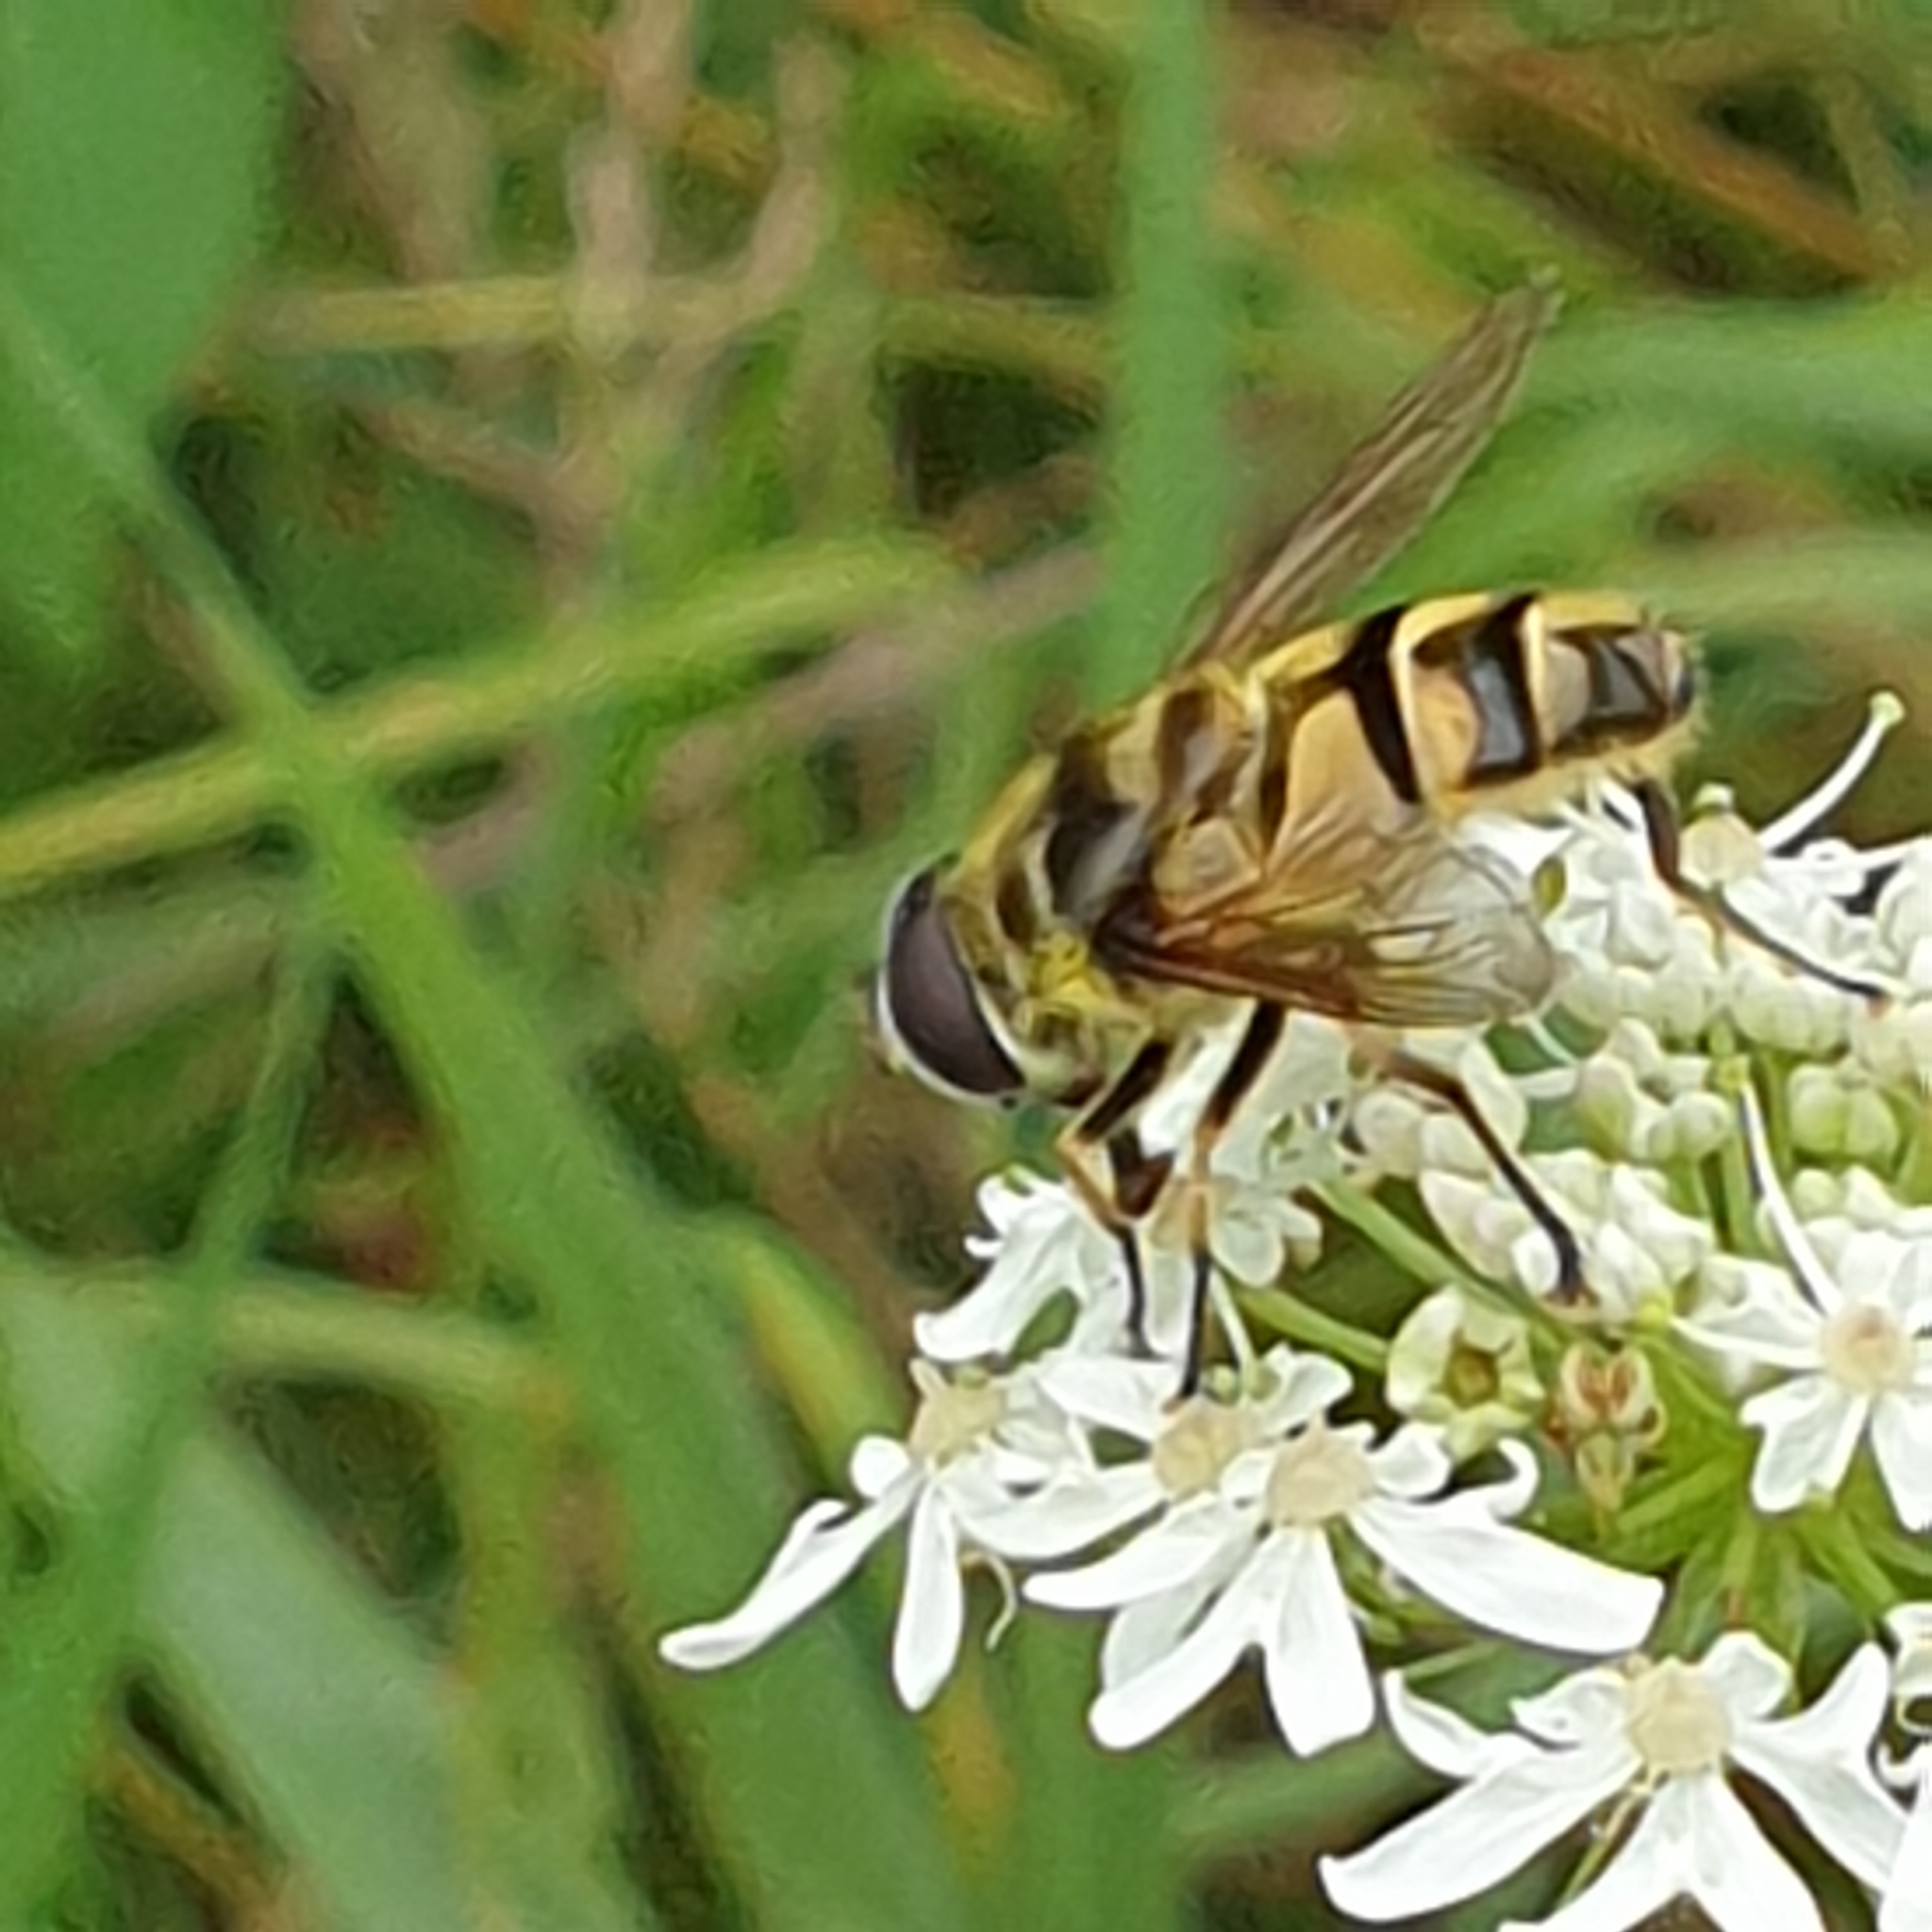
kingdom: Animalia
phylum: Arthropoda
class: Insecta
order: Diptera
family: Syrphidae
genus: Myathropa
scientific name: Myathropa florea
